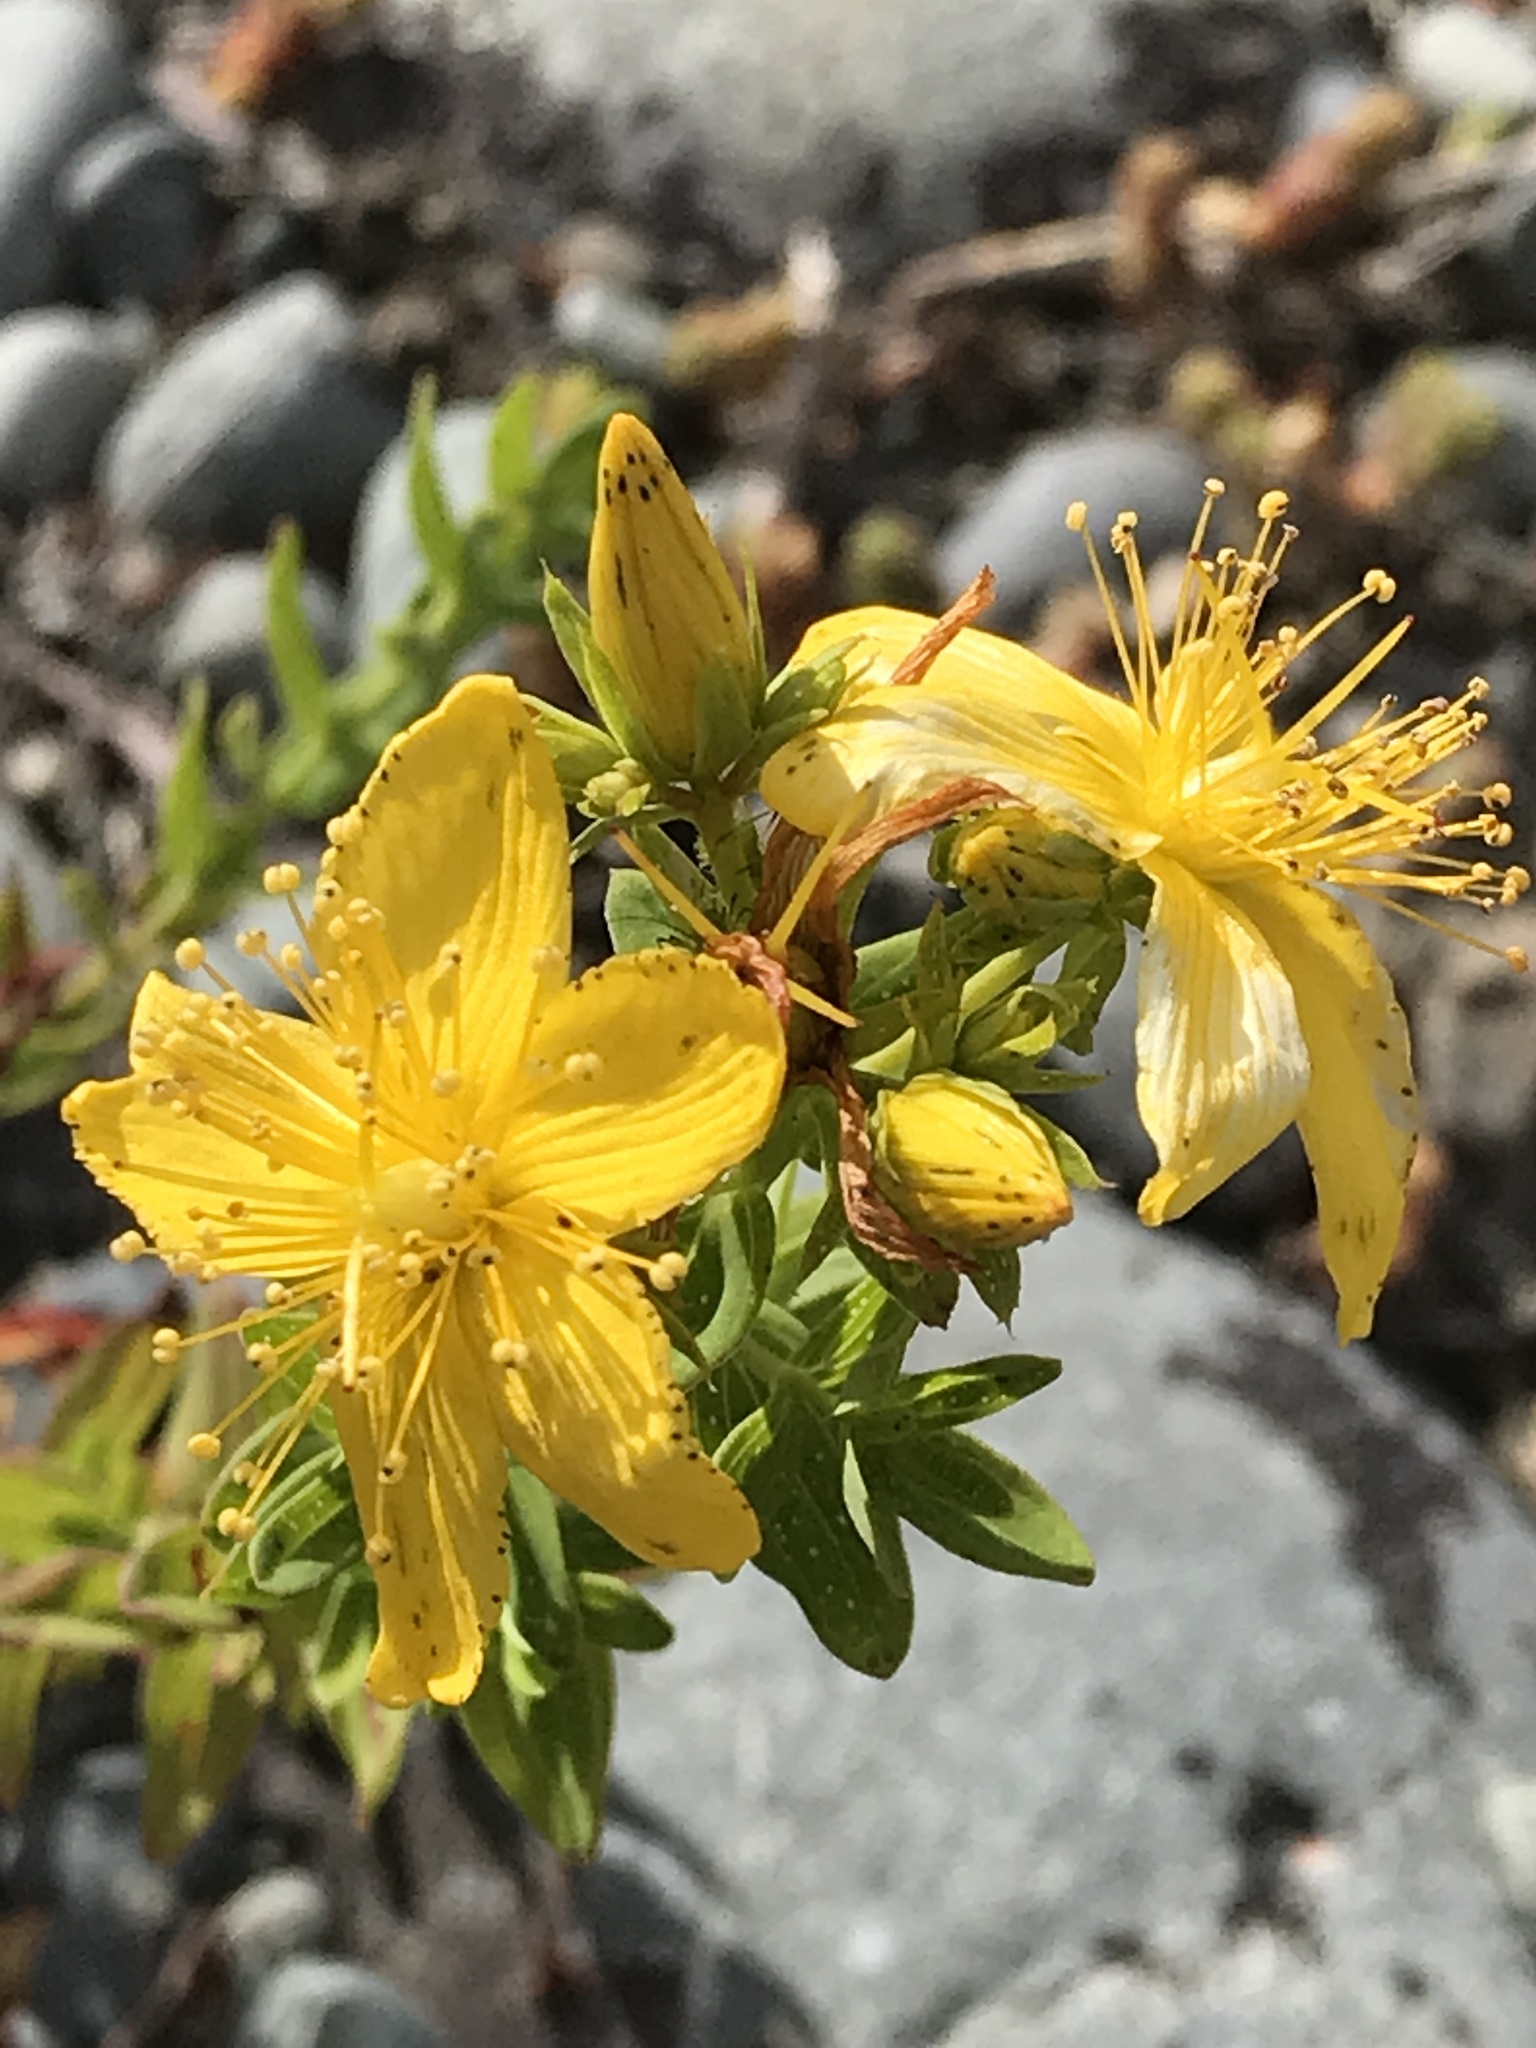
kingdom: Plantae
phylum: Tracheophyta
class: Magnoliopsida
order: Malpighiales
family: Hypericaceae
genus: Hypericum
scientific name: Hypericum perforatum
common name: Common st. johnswort
